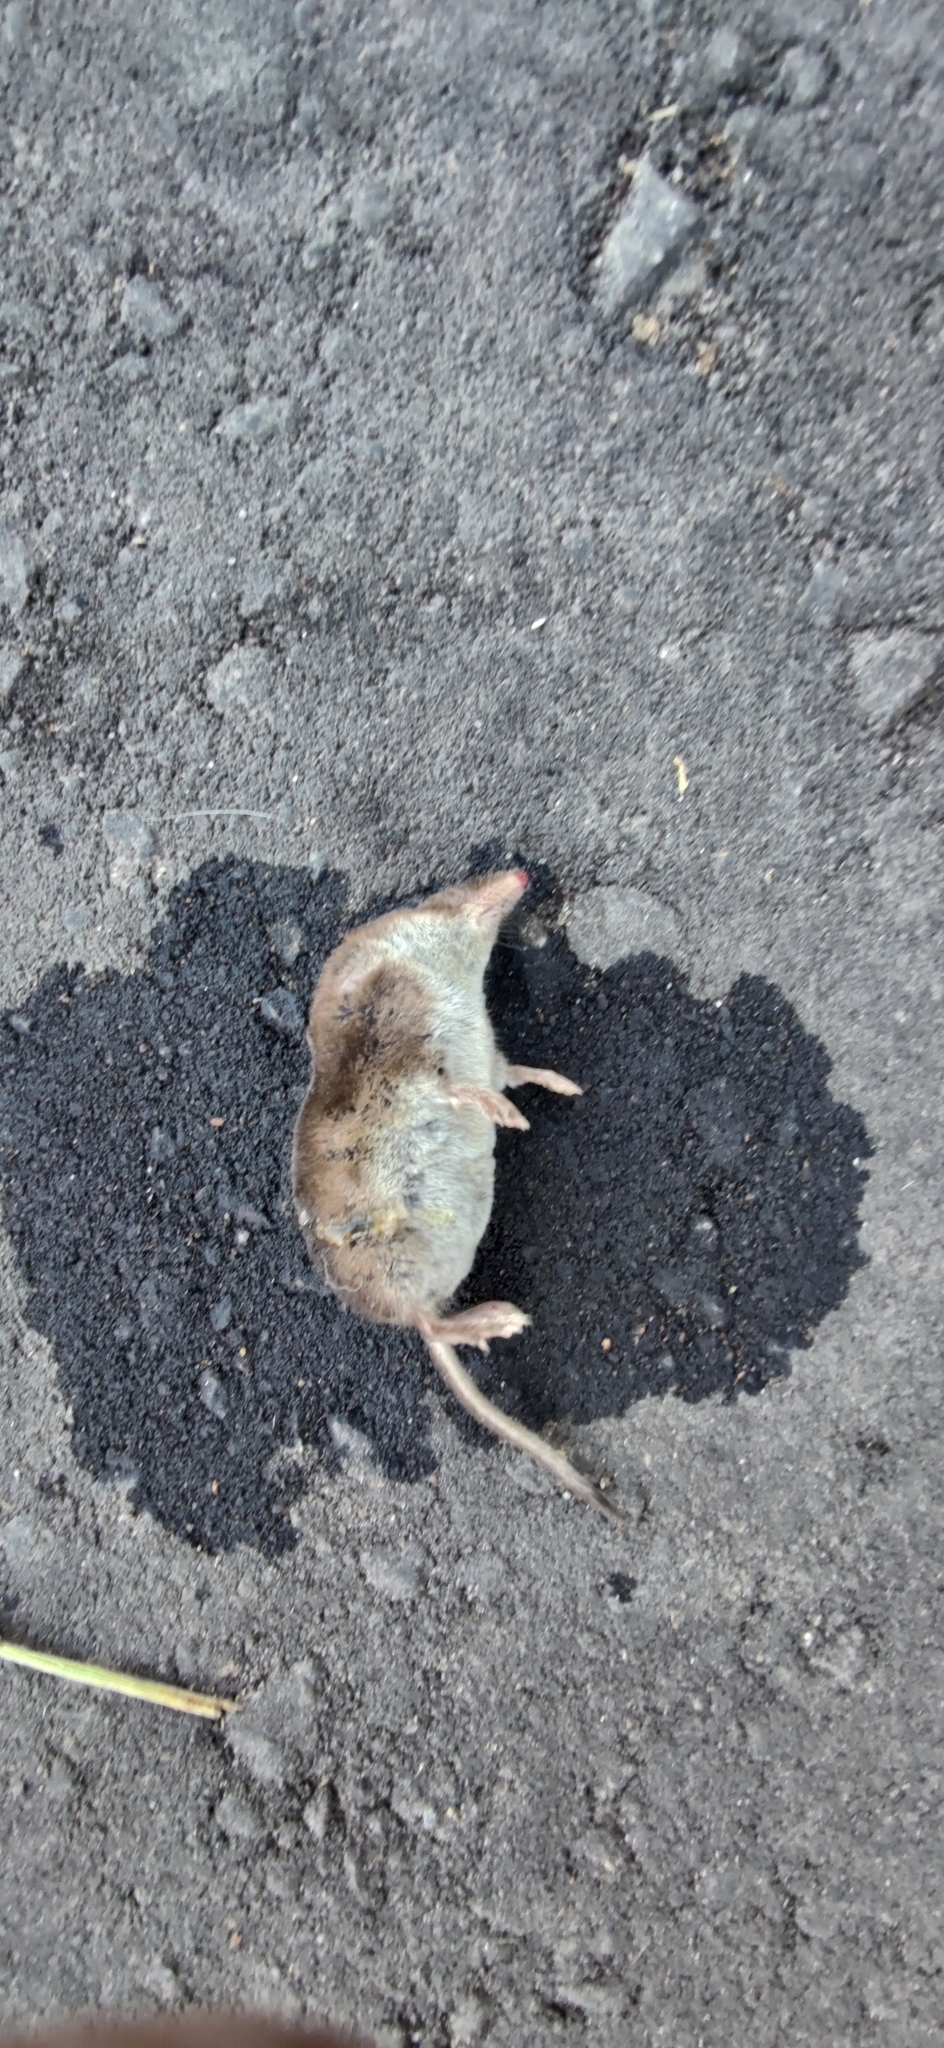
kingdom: Animalia
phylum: Chordata
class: Mammalia
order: Soricomorpha
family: Soricidae
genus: Sorex
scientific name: Sorex araneus
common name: Common shrew
